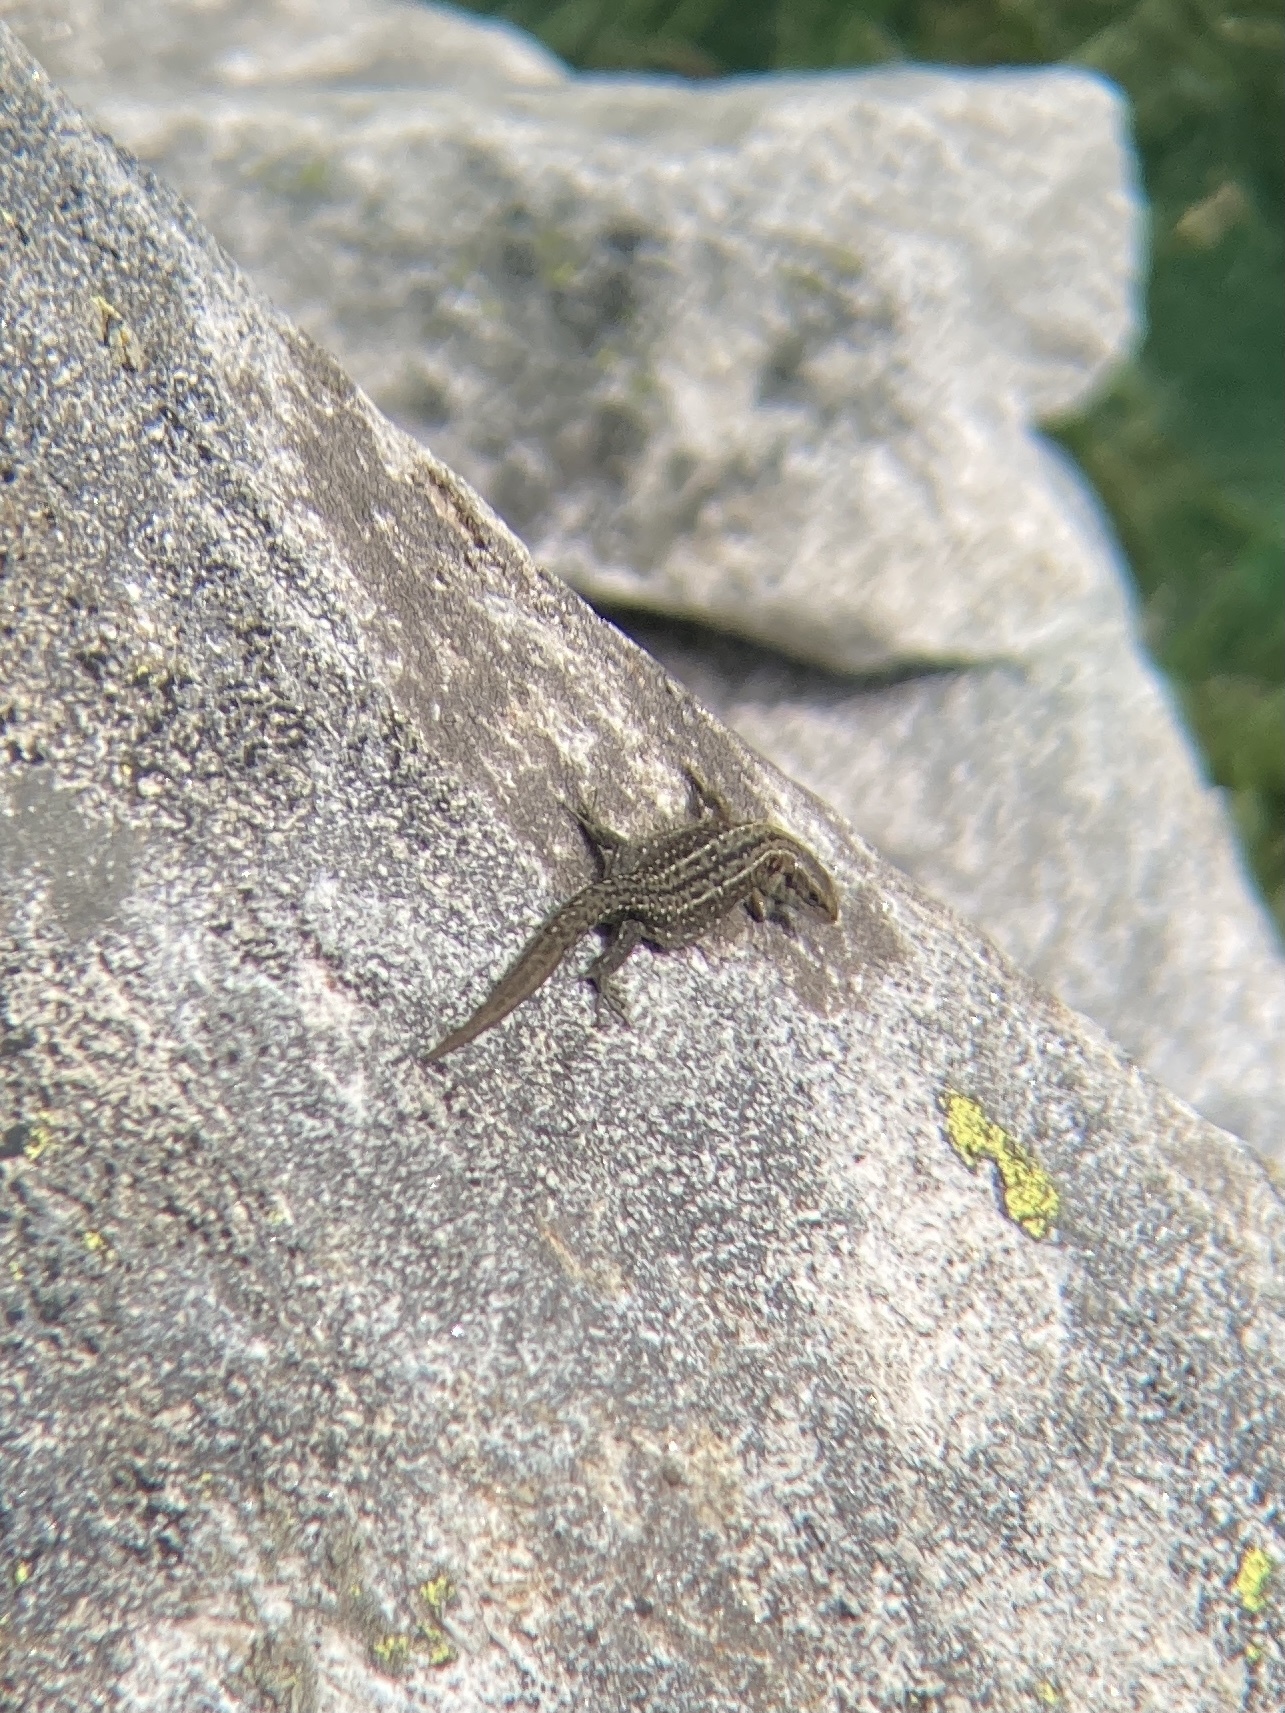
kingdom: Animalia
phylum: Chordata
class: Squamata
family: Lacertidae
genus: Zootoca
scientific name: Zootoca vivipara
